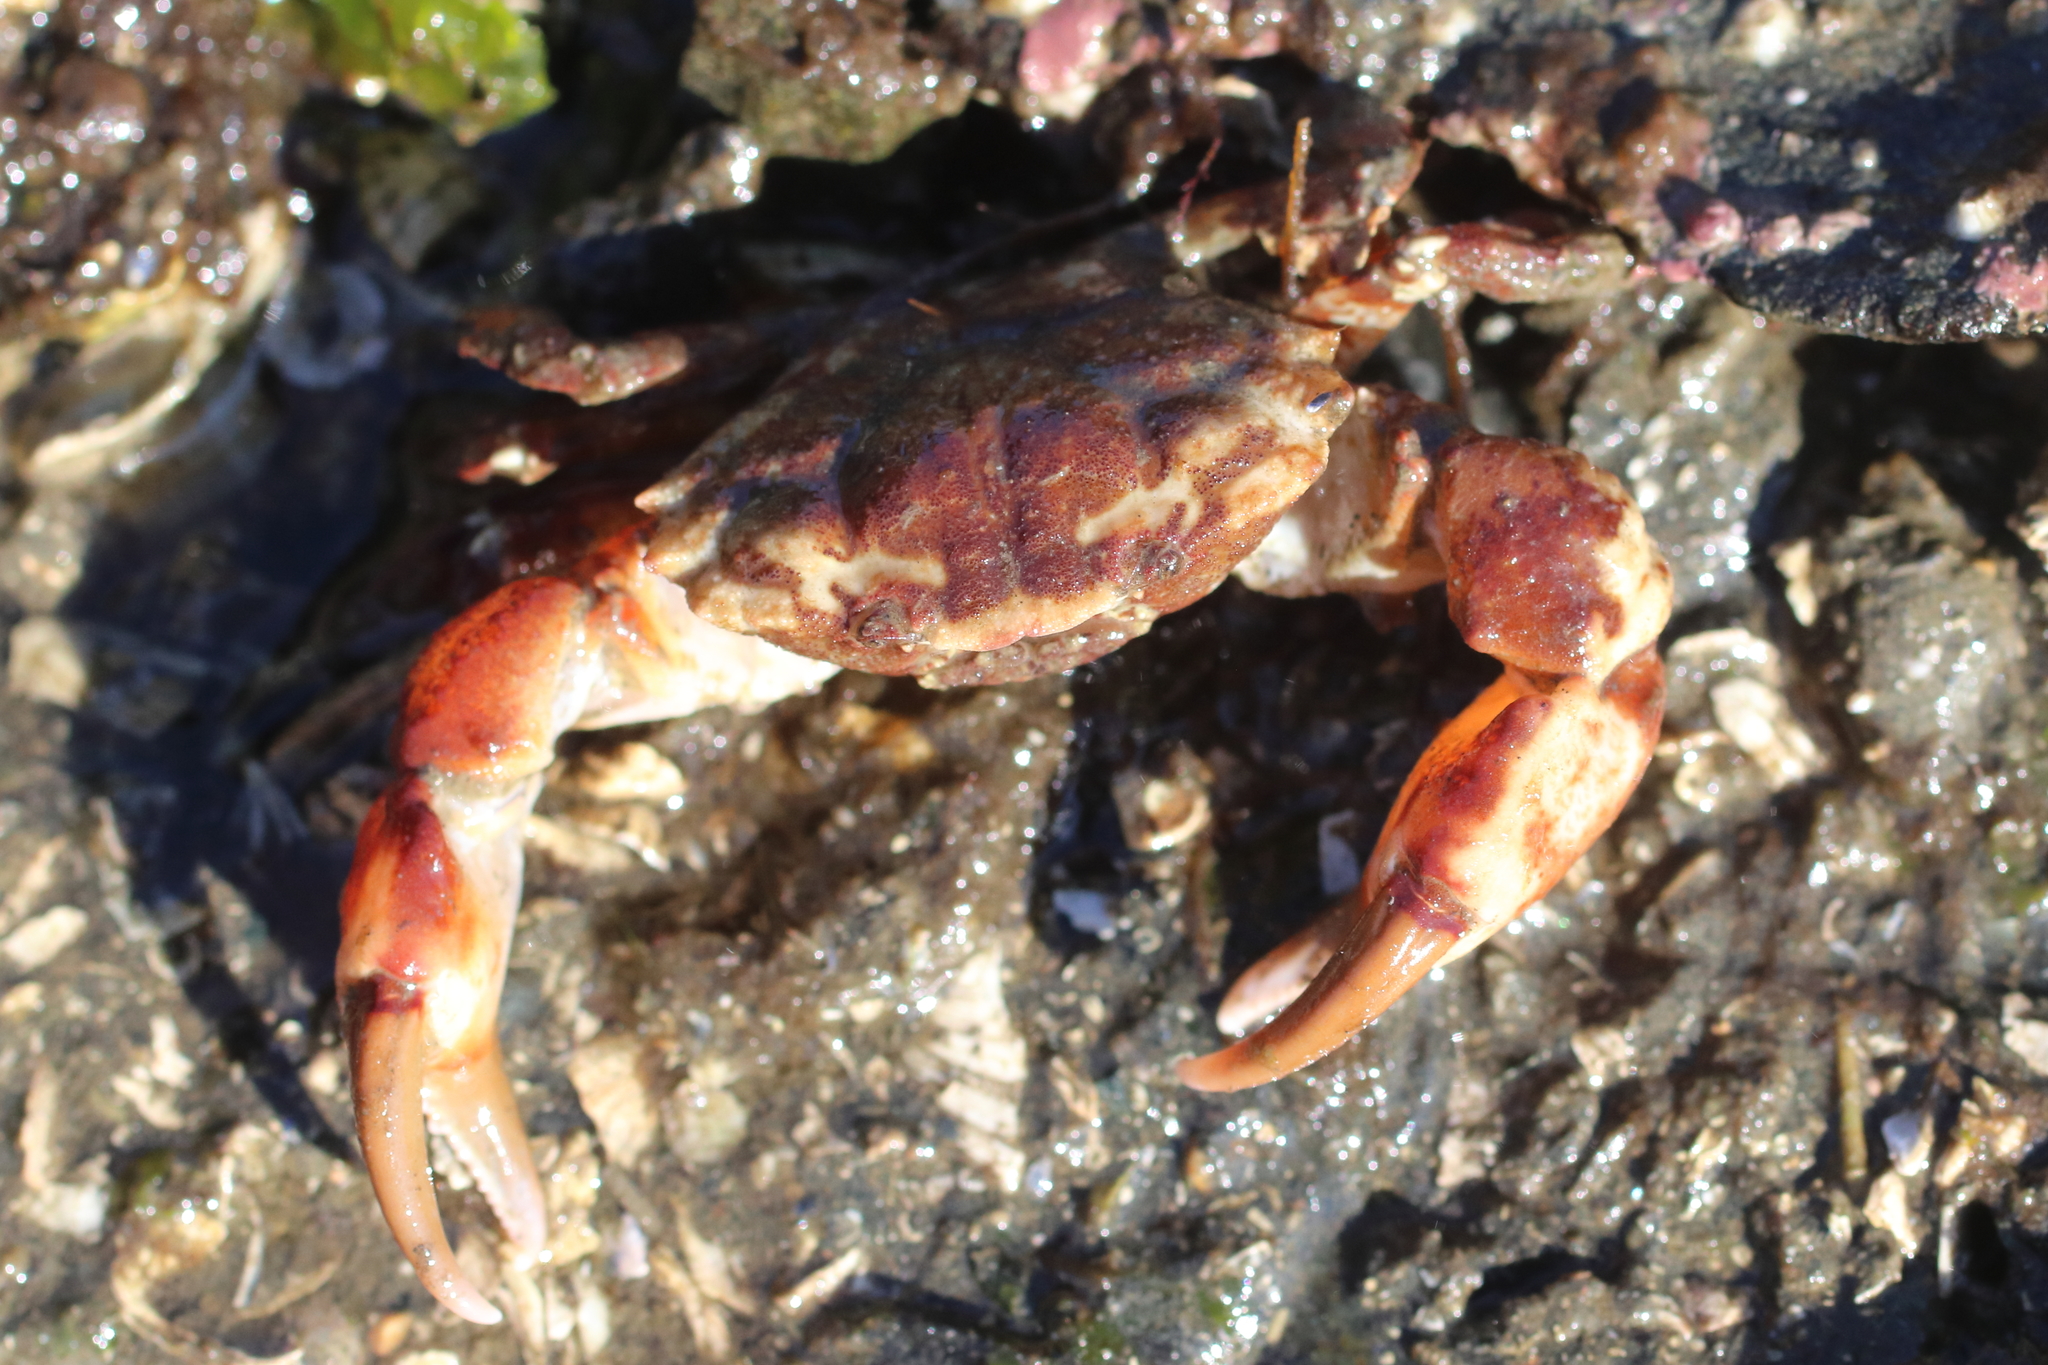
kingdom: Animalia
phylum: Arthropoda
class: Malacostraca
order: Decapoda
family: Panopeidae
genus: Lophopanopeus
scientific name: Lophopanopeus bellus
